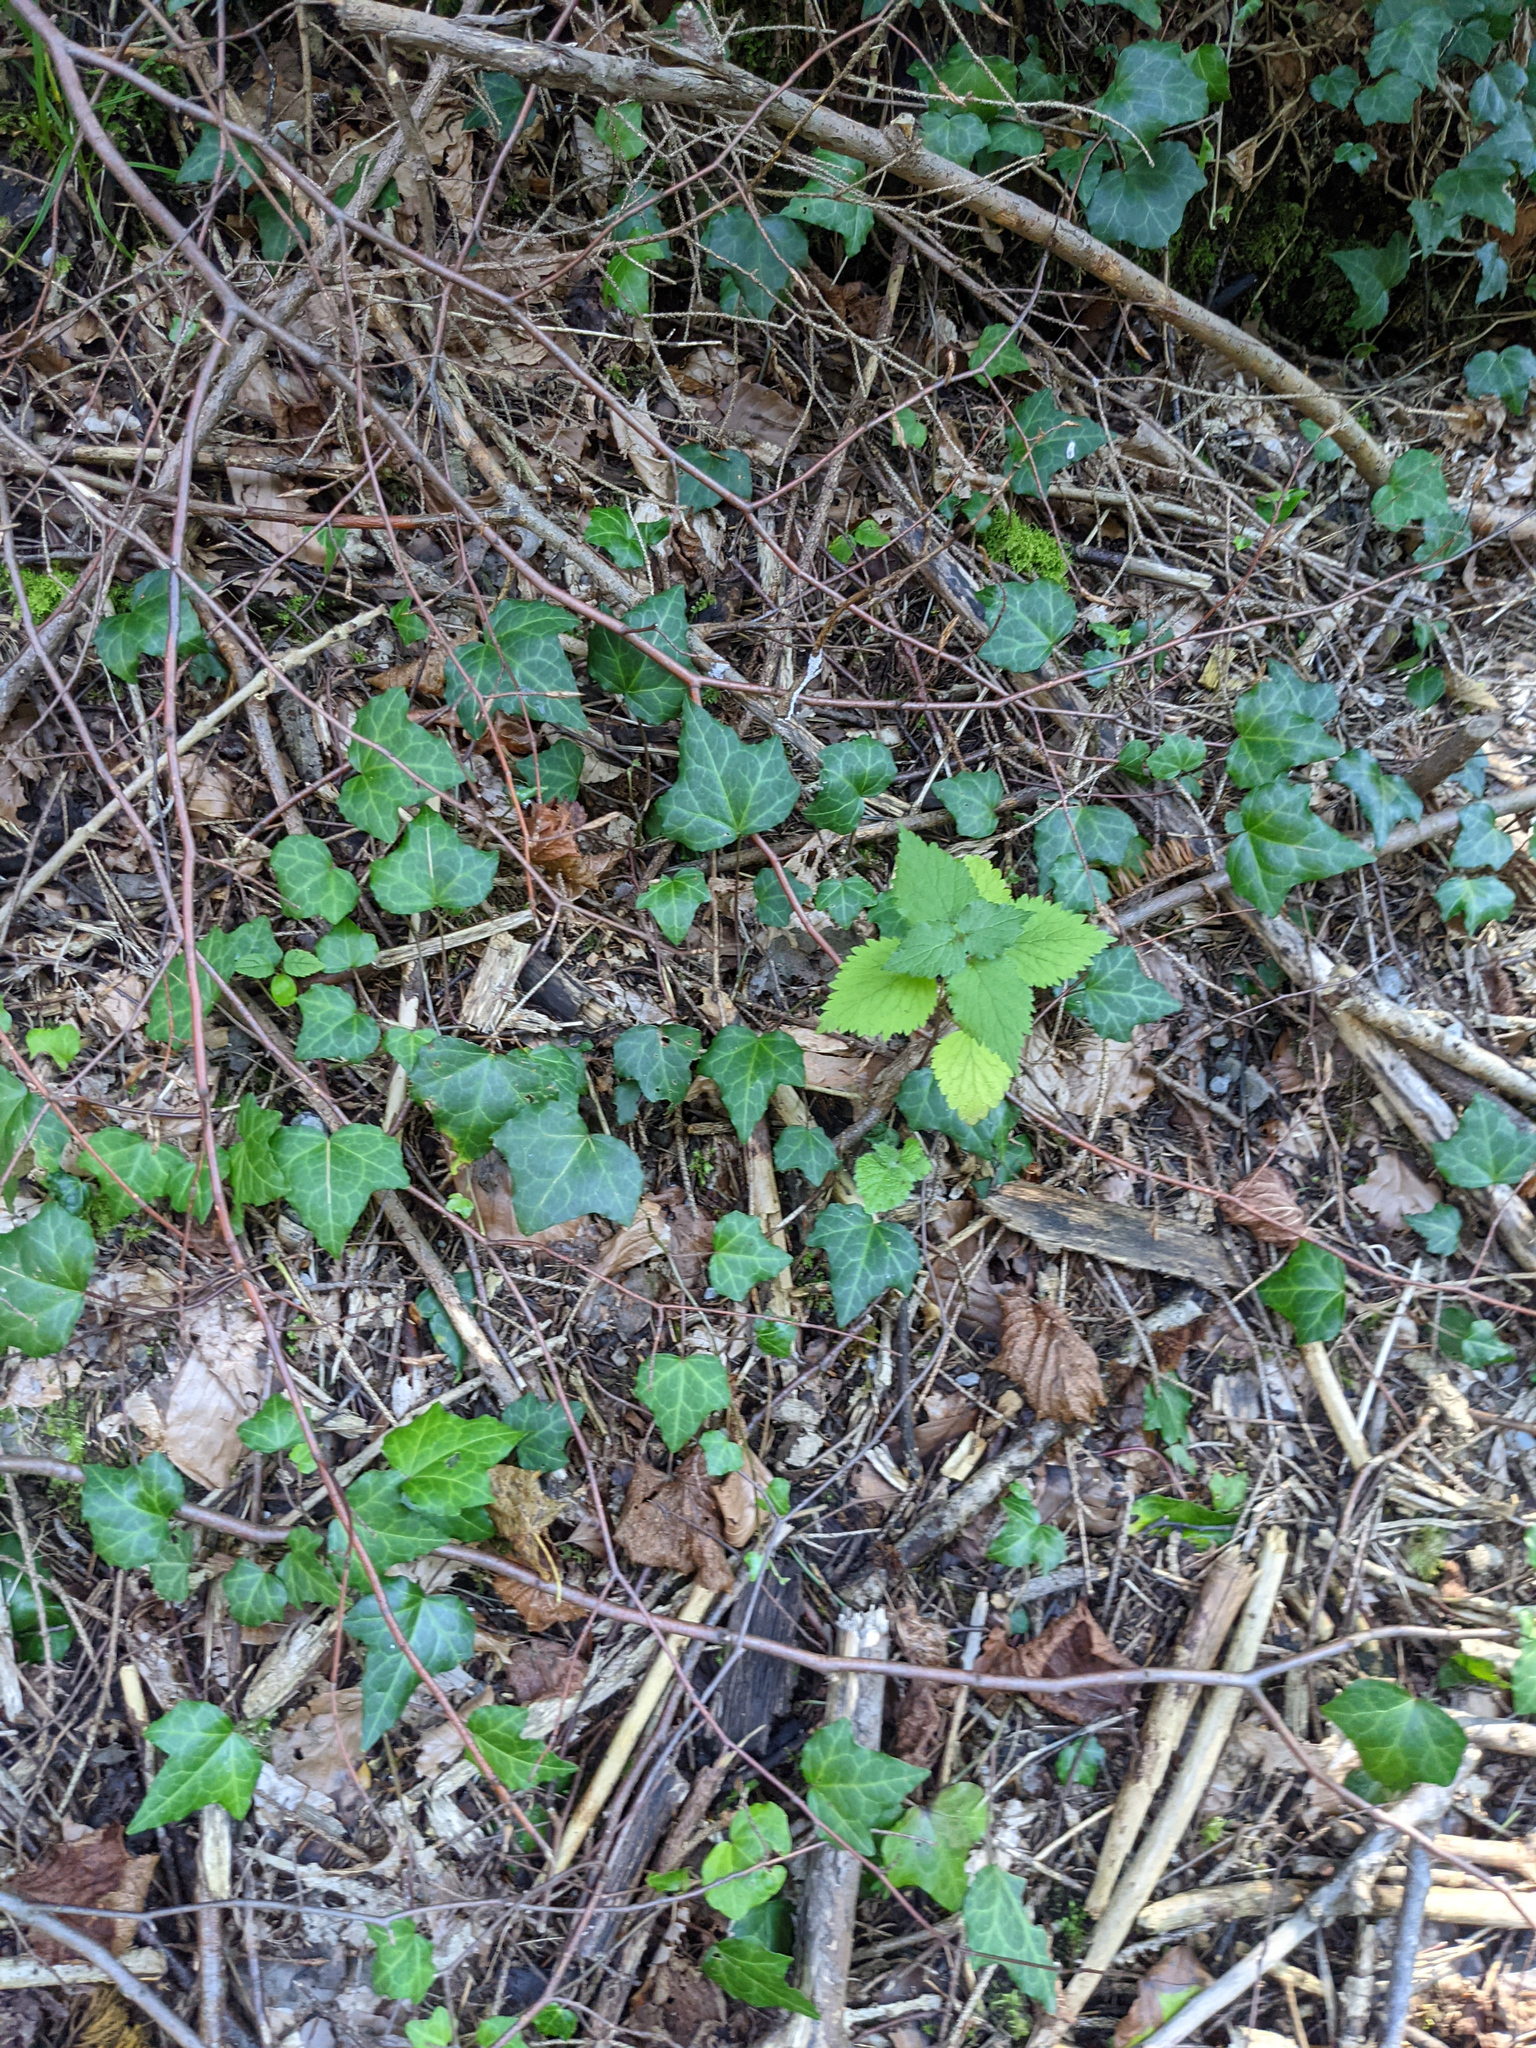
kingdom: Plantae
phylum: Tracheophyta
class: Magnoliopsida
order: Apiales
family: Araliaceae
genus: Hedera
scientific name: Hedera helix
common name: Ivy
